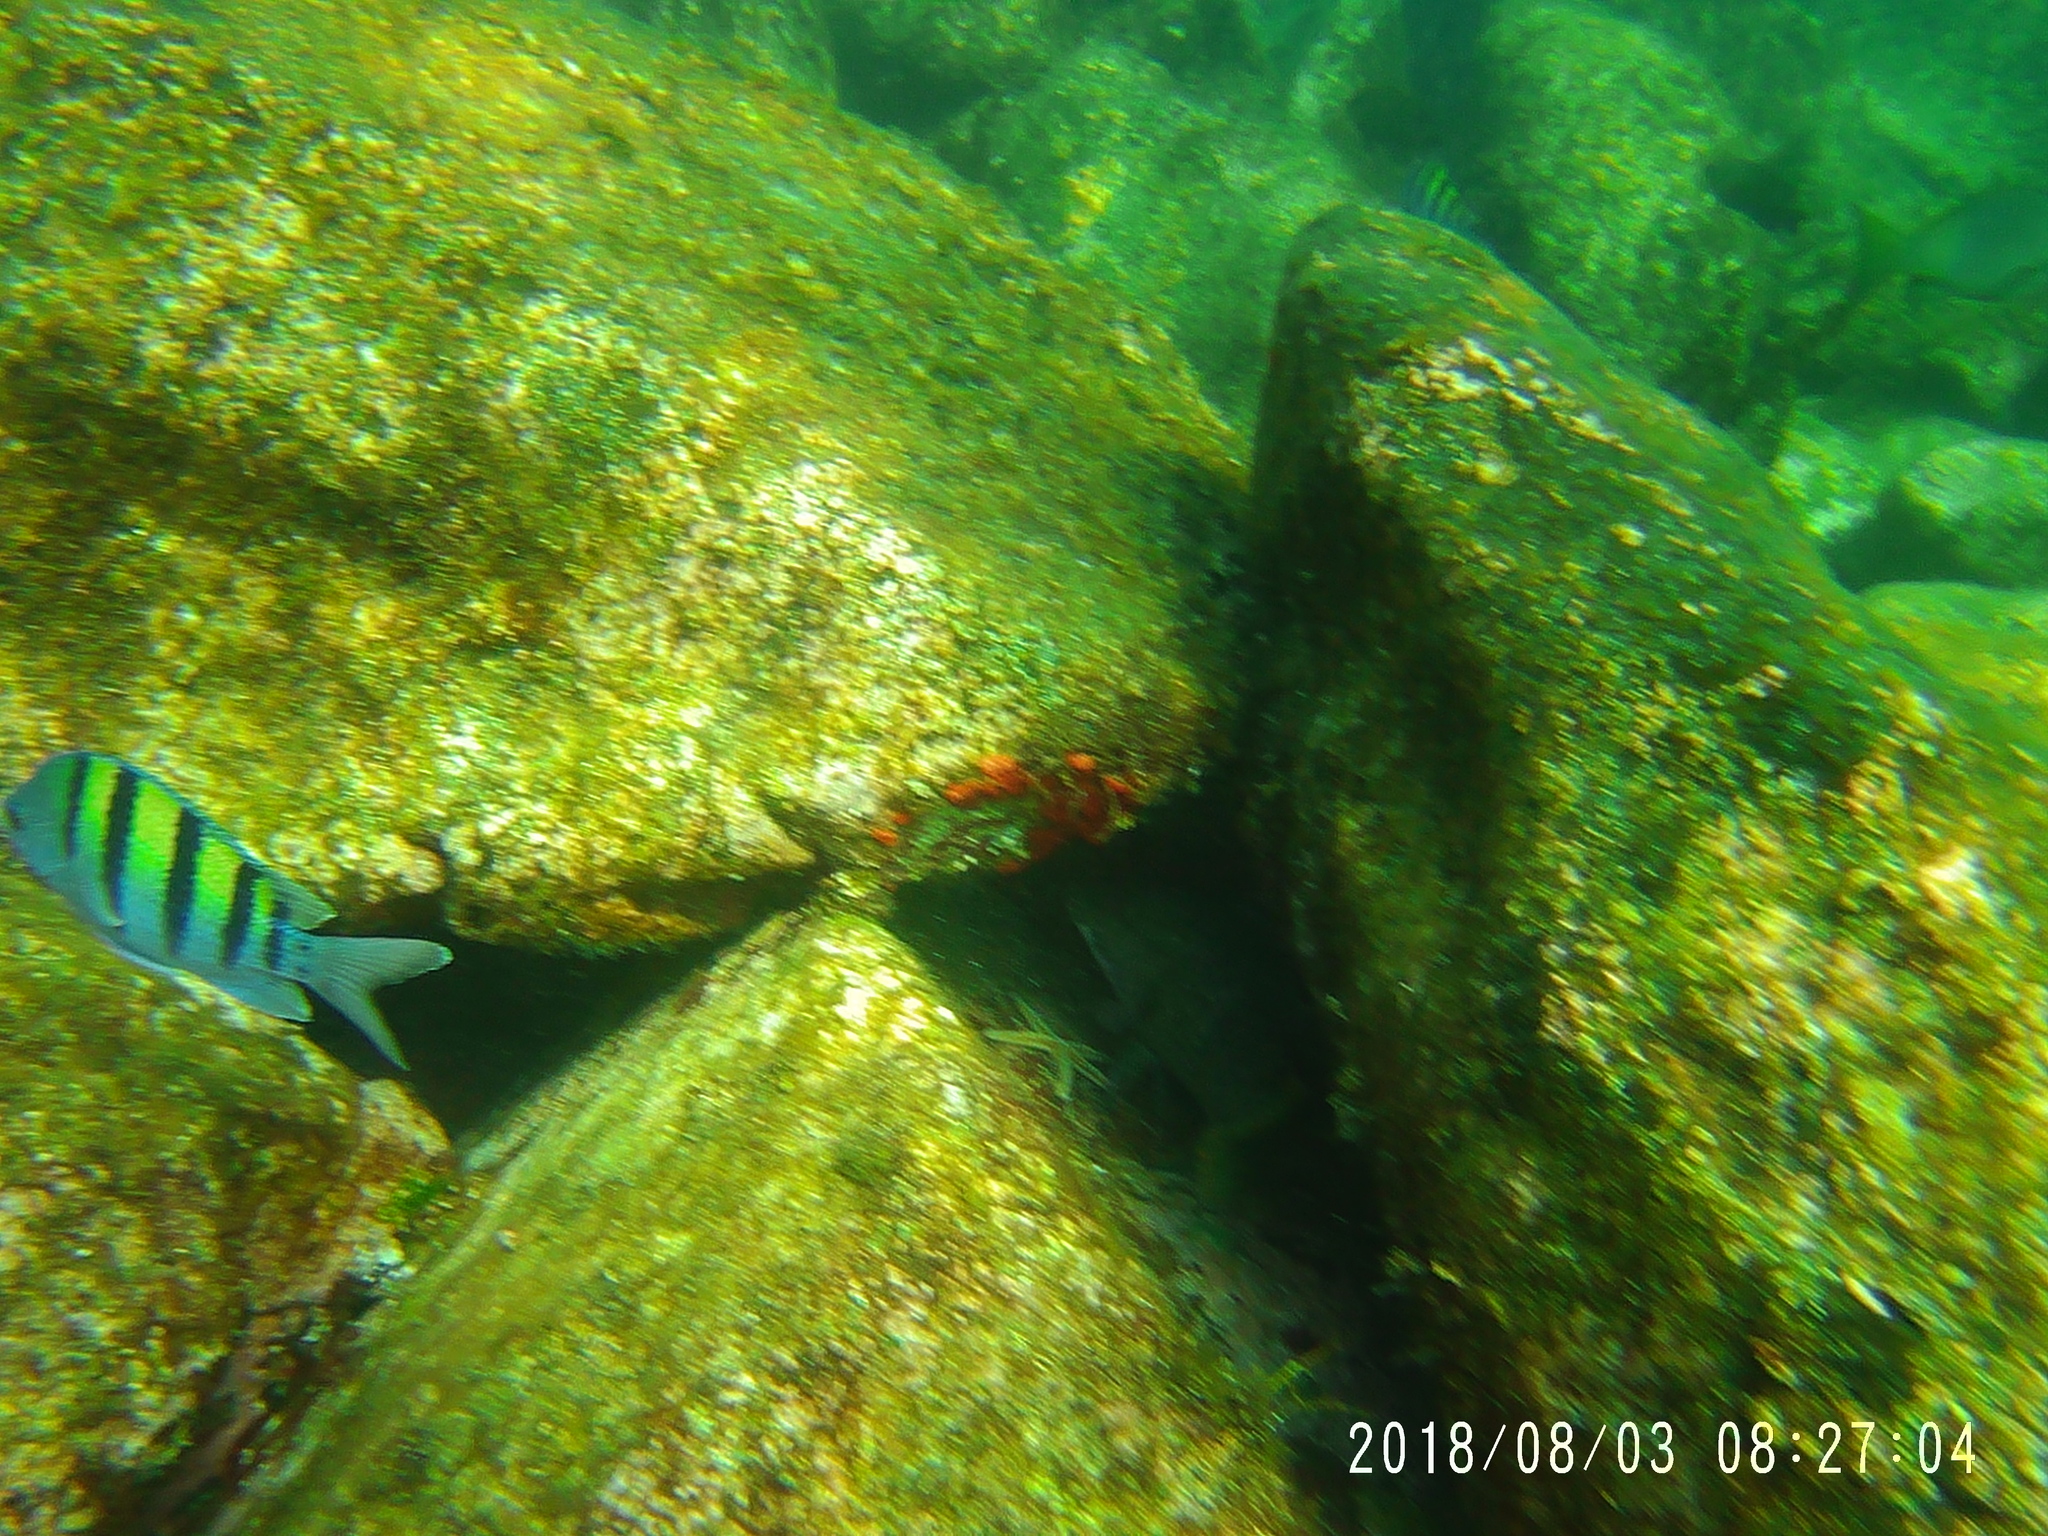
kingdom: Animalia
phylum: Chordata
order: Perciformes
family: Pomacentridae
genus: Abudefduf
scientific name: Abudefduf troschelii
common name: Panamic sergeant major
